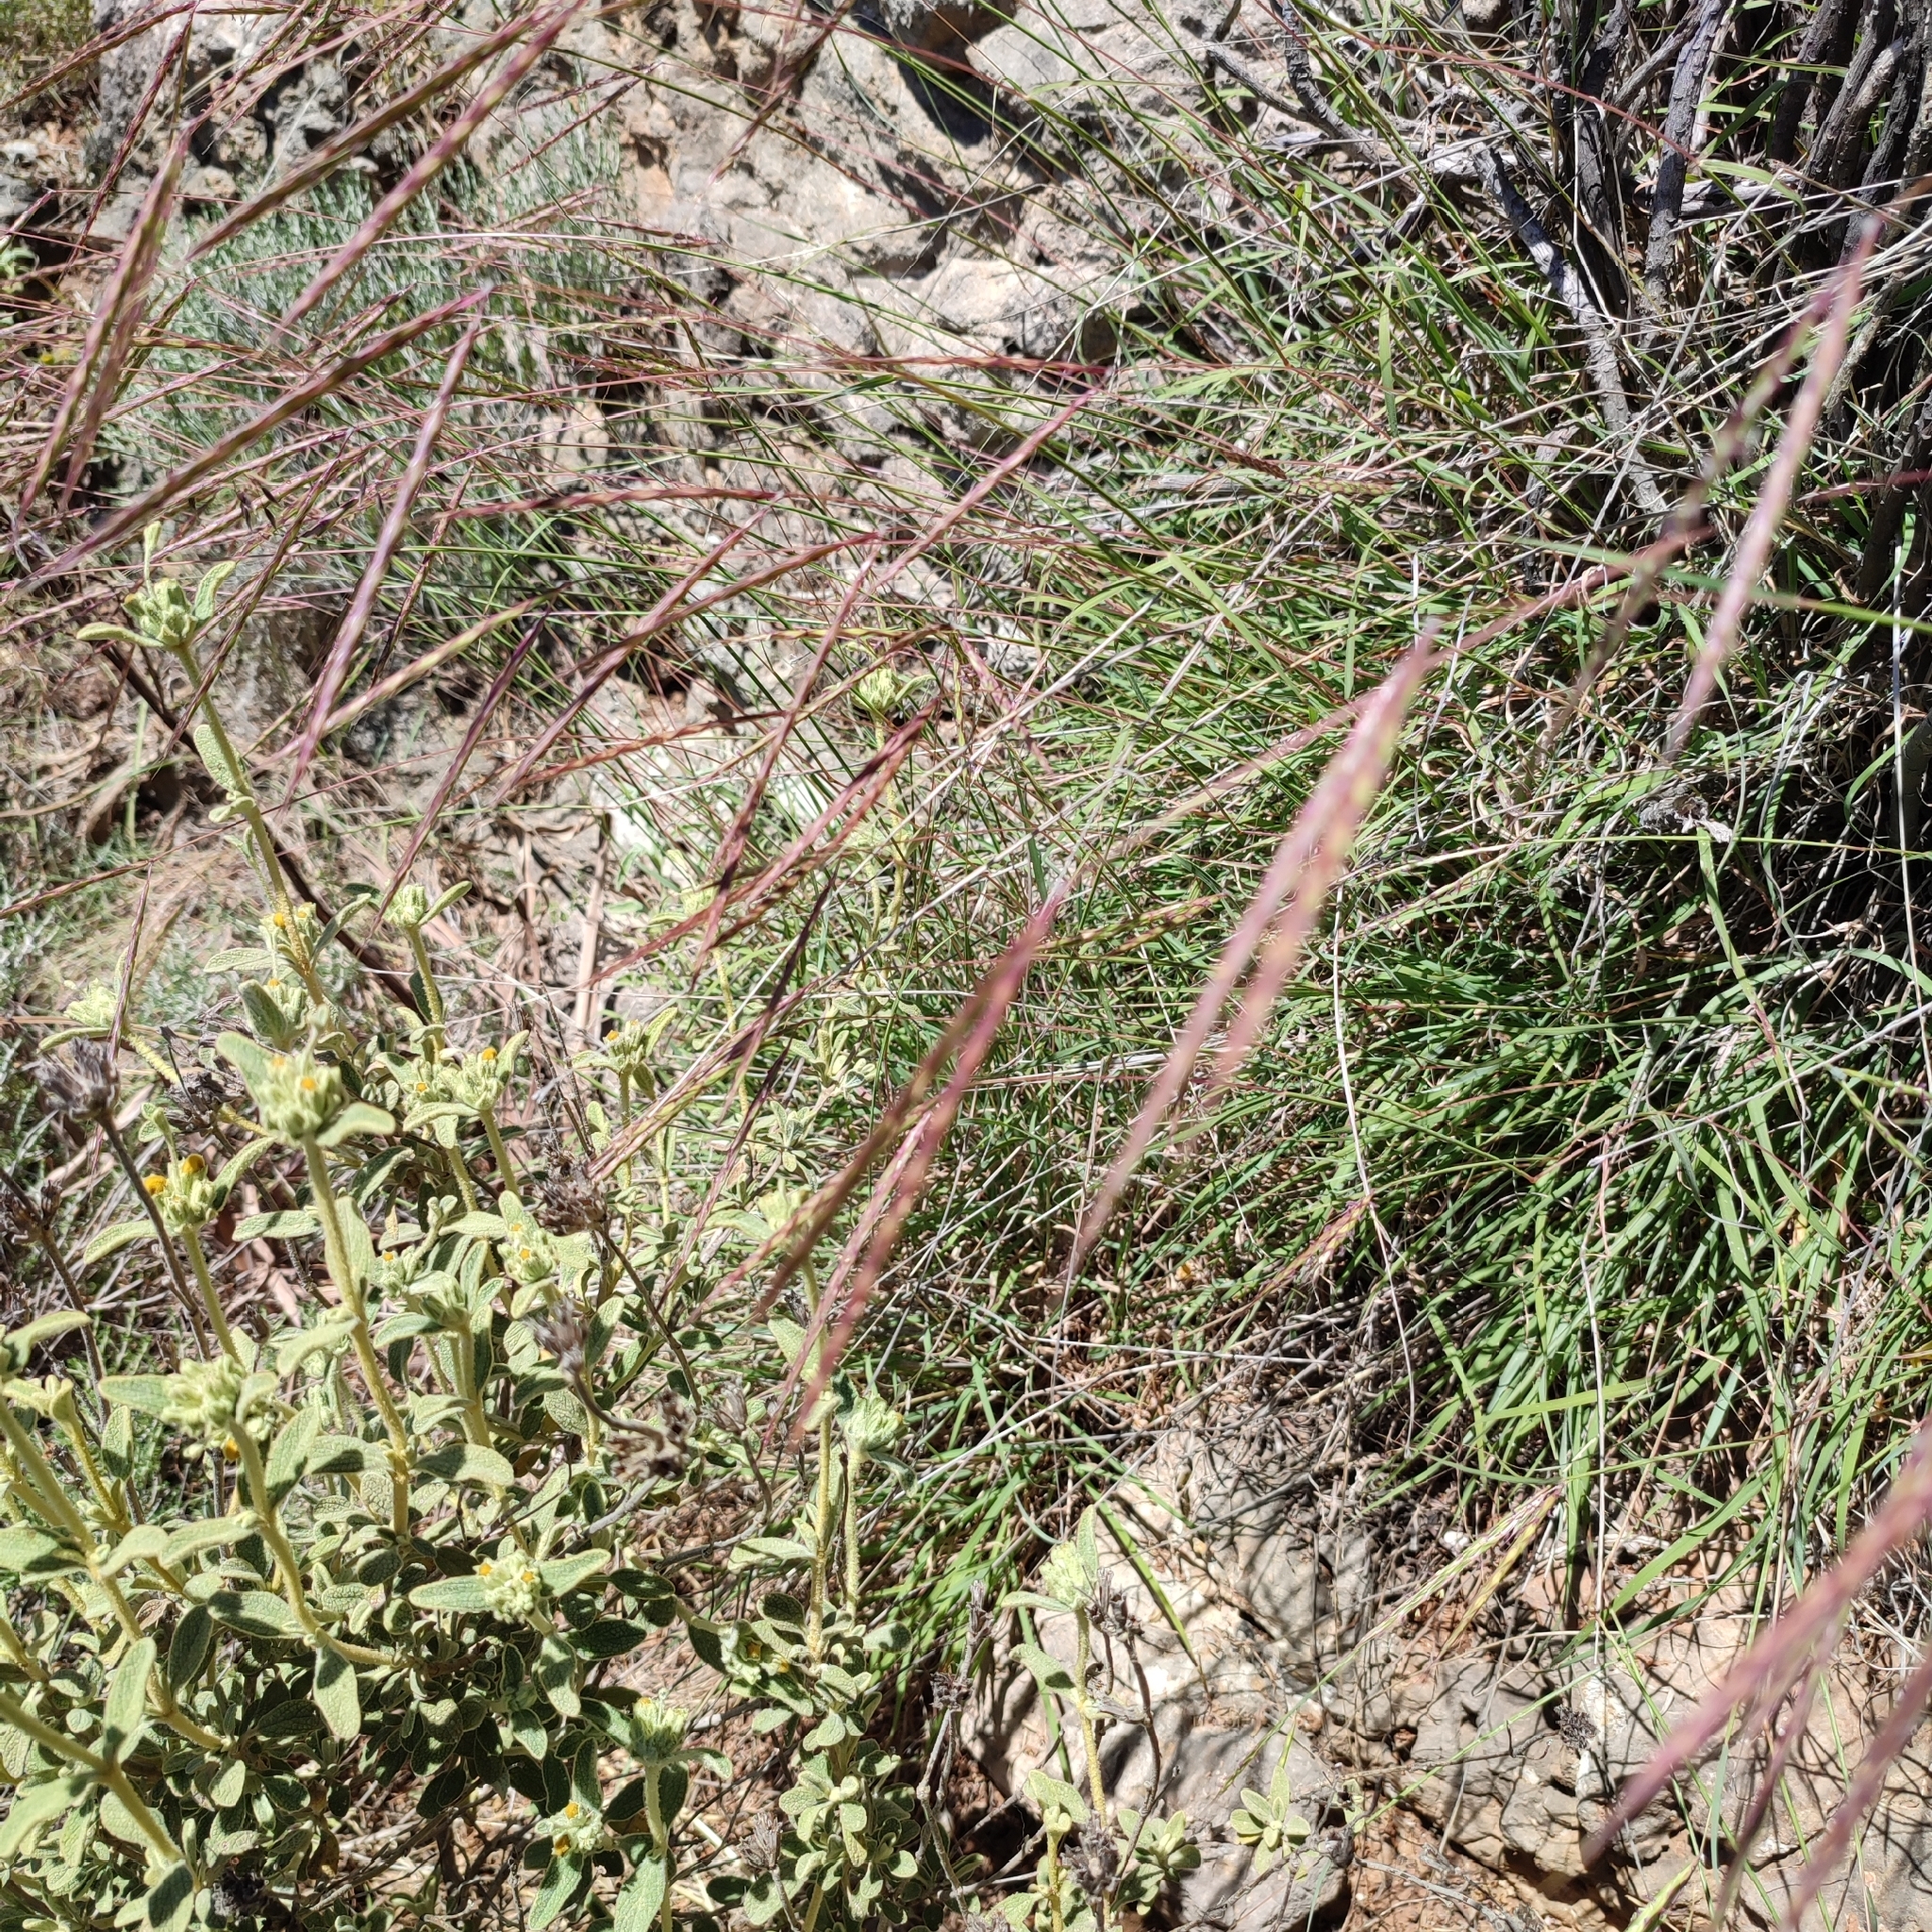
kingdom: Plantae
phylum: Tracheophyta
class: Liliopsida
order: Poales
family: Poaceae
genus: Andropogon
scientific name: Andropogon distachyos
